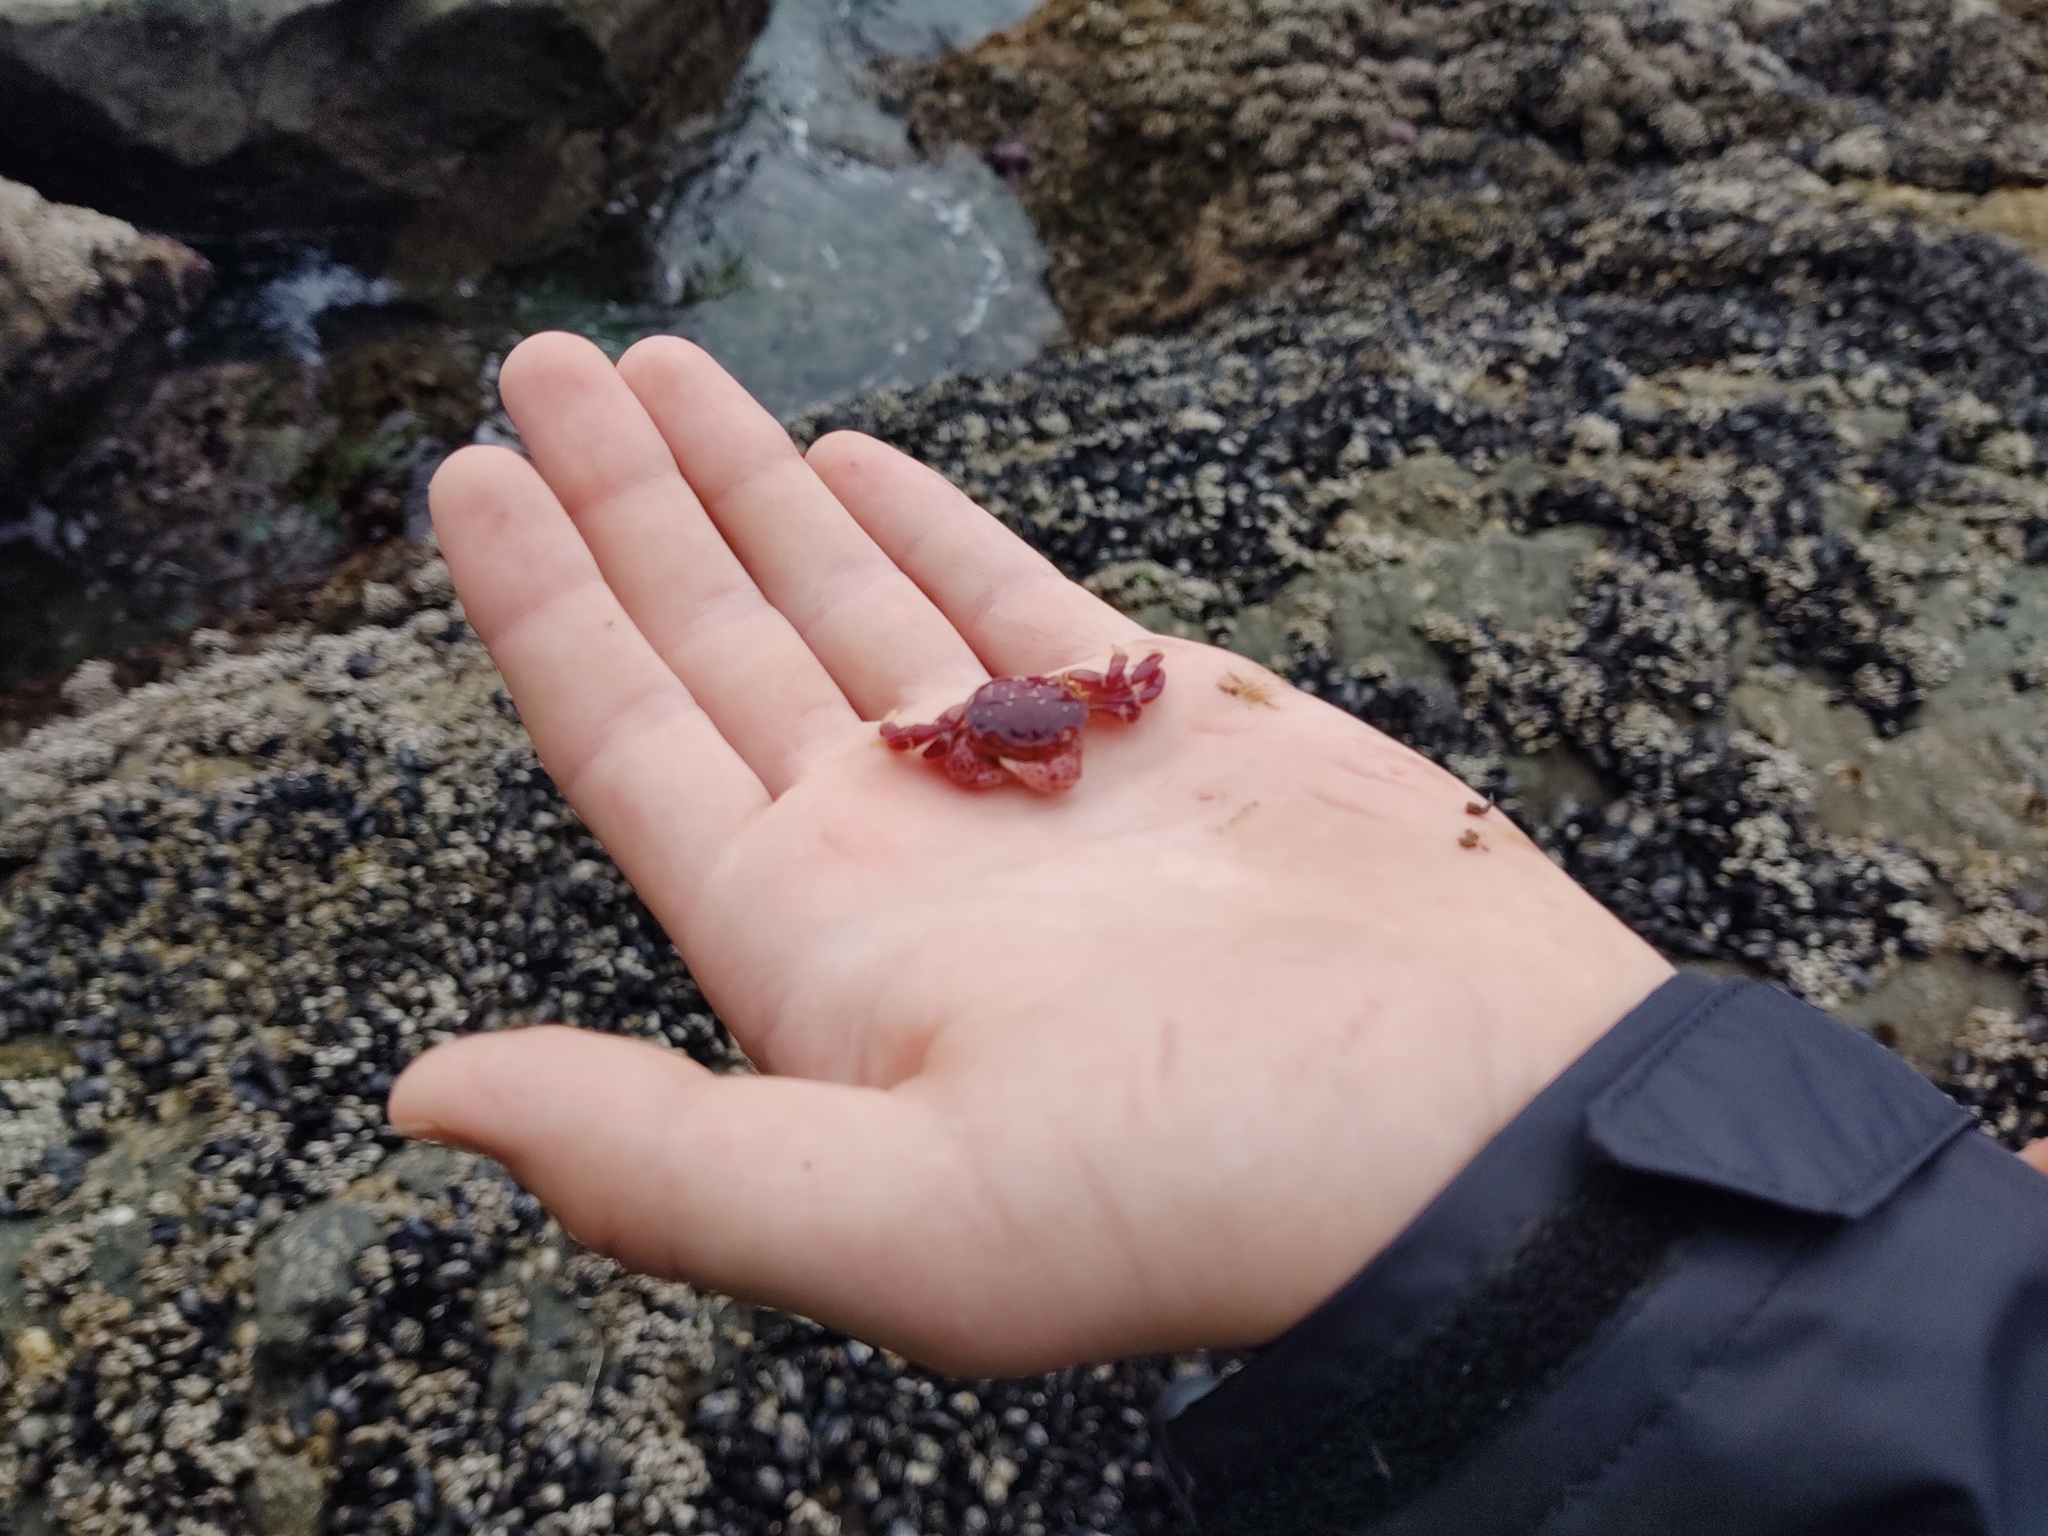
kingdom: Animalia
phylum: Arthropoda
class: Malacostraca
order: Decapoda
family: Varunidae
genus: Hemigrapsus
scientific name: Hemigrapsus nudus
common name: Purple shore crab
